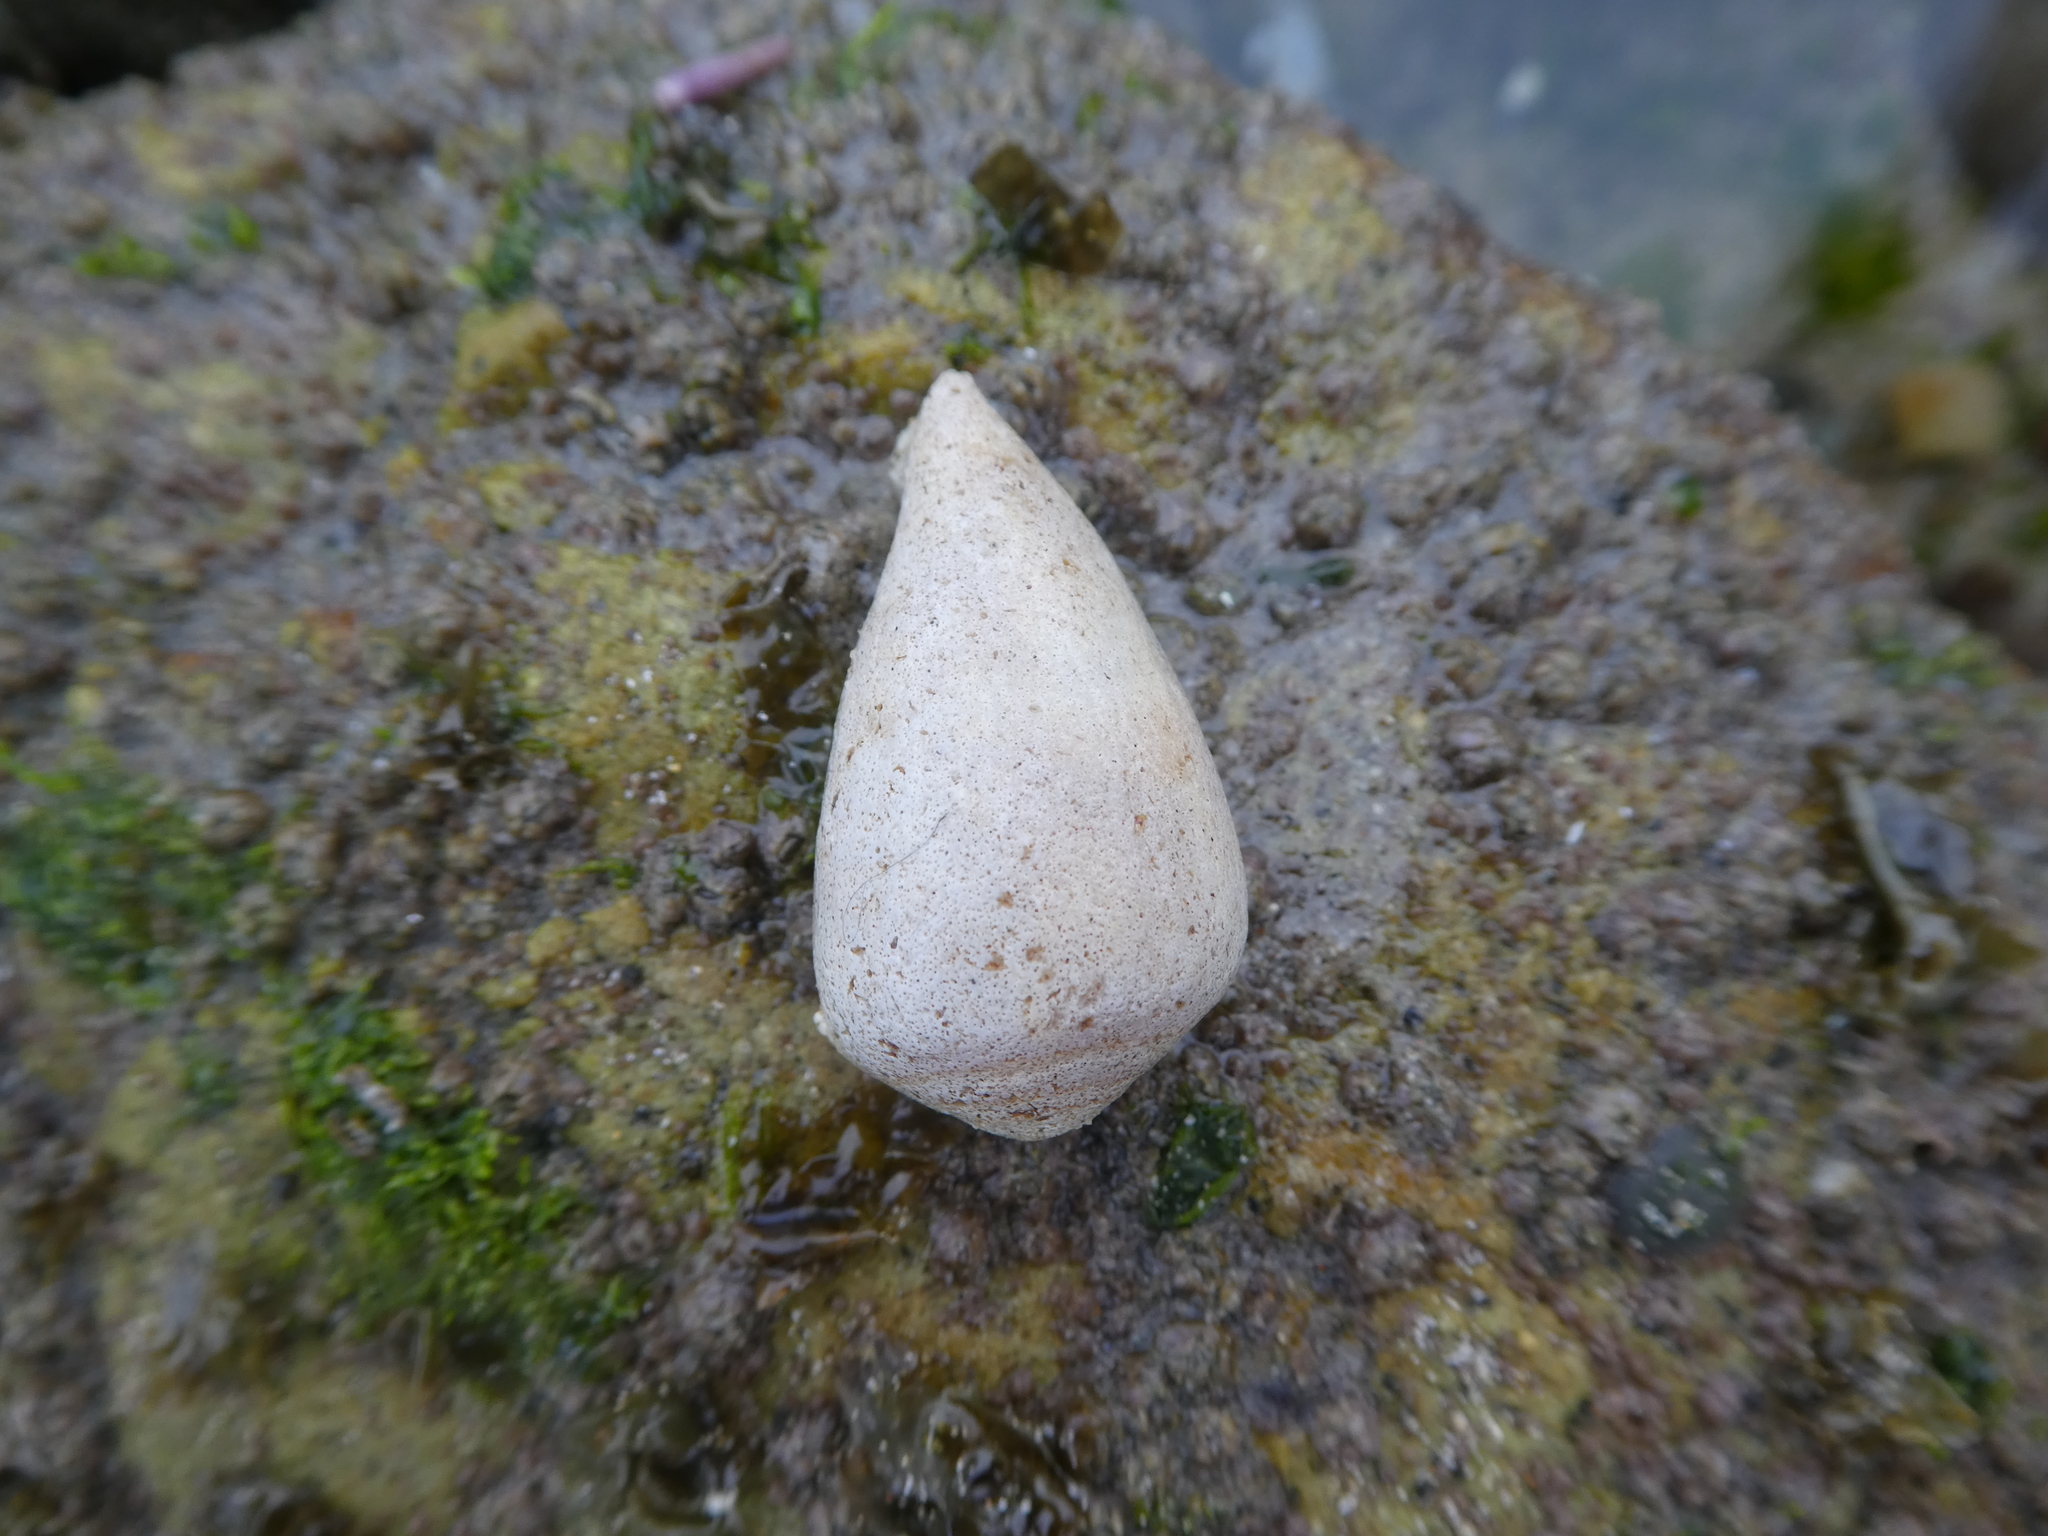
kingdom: Animalia
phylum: Mollusca
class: Gastropoda
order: Neogastropoda
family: Conidae
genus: Californiconus
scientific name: Californiconus californicus
